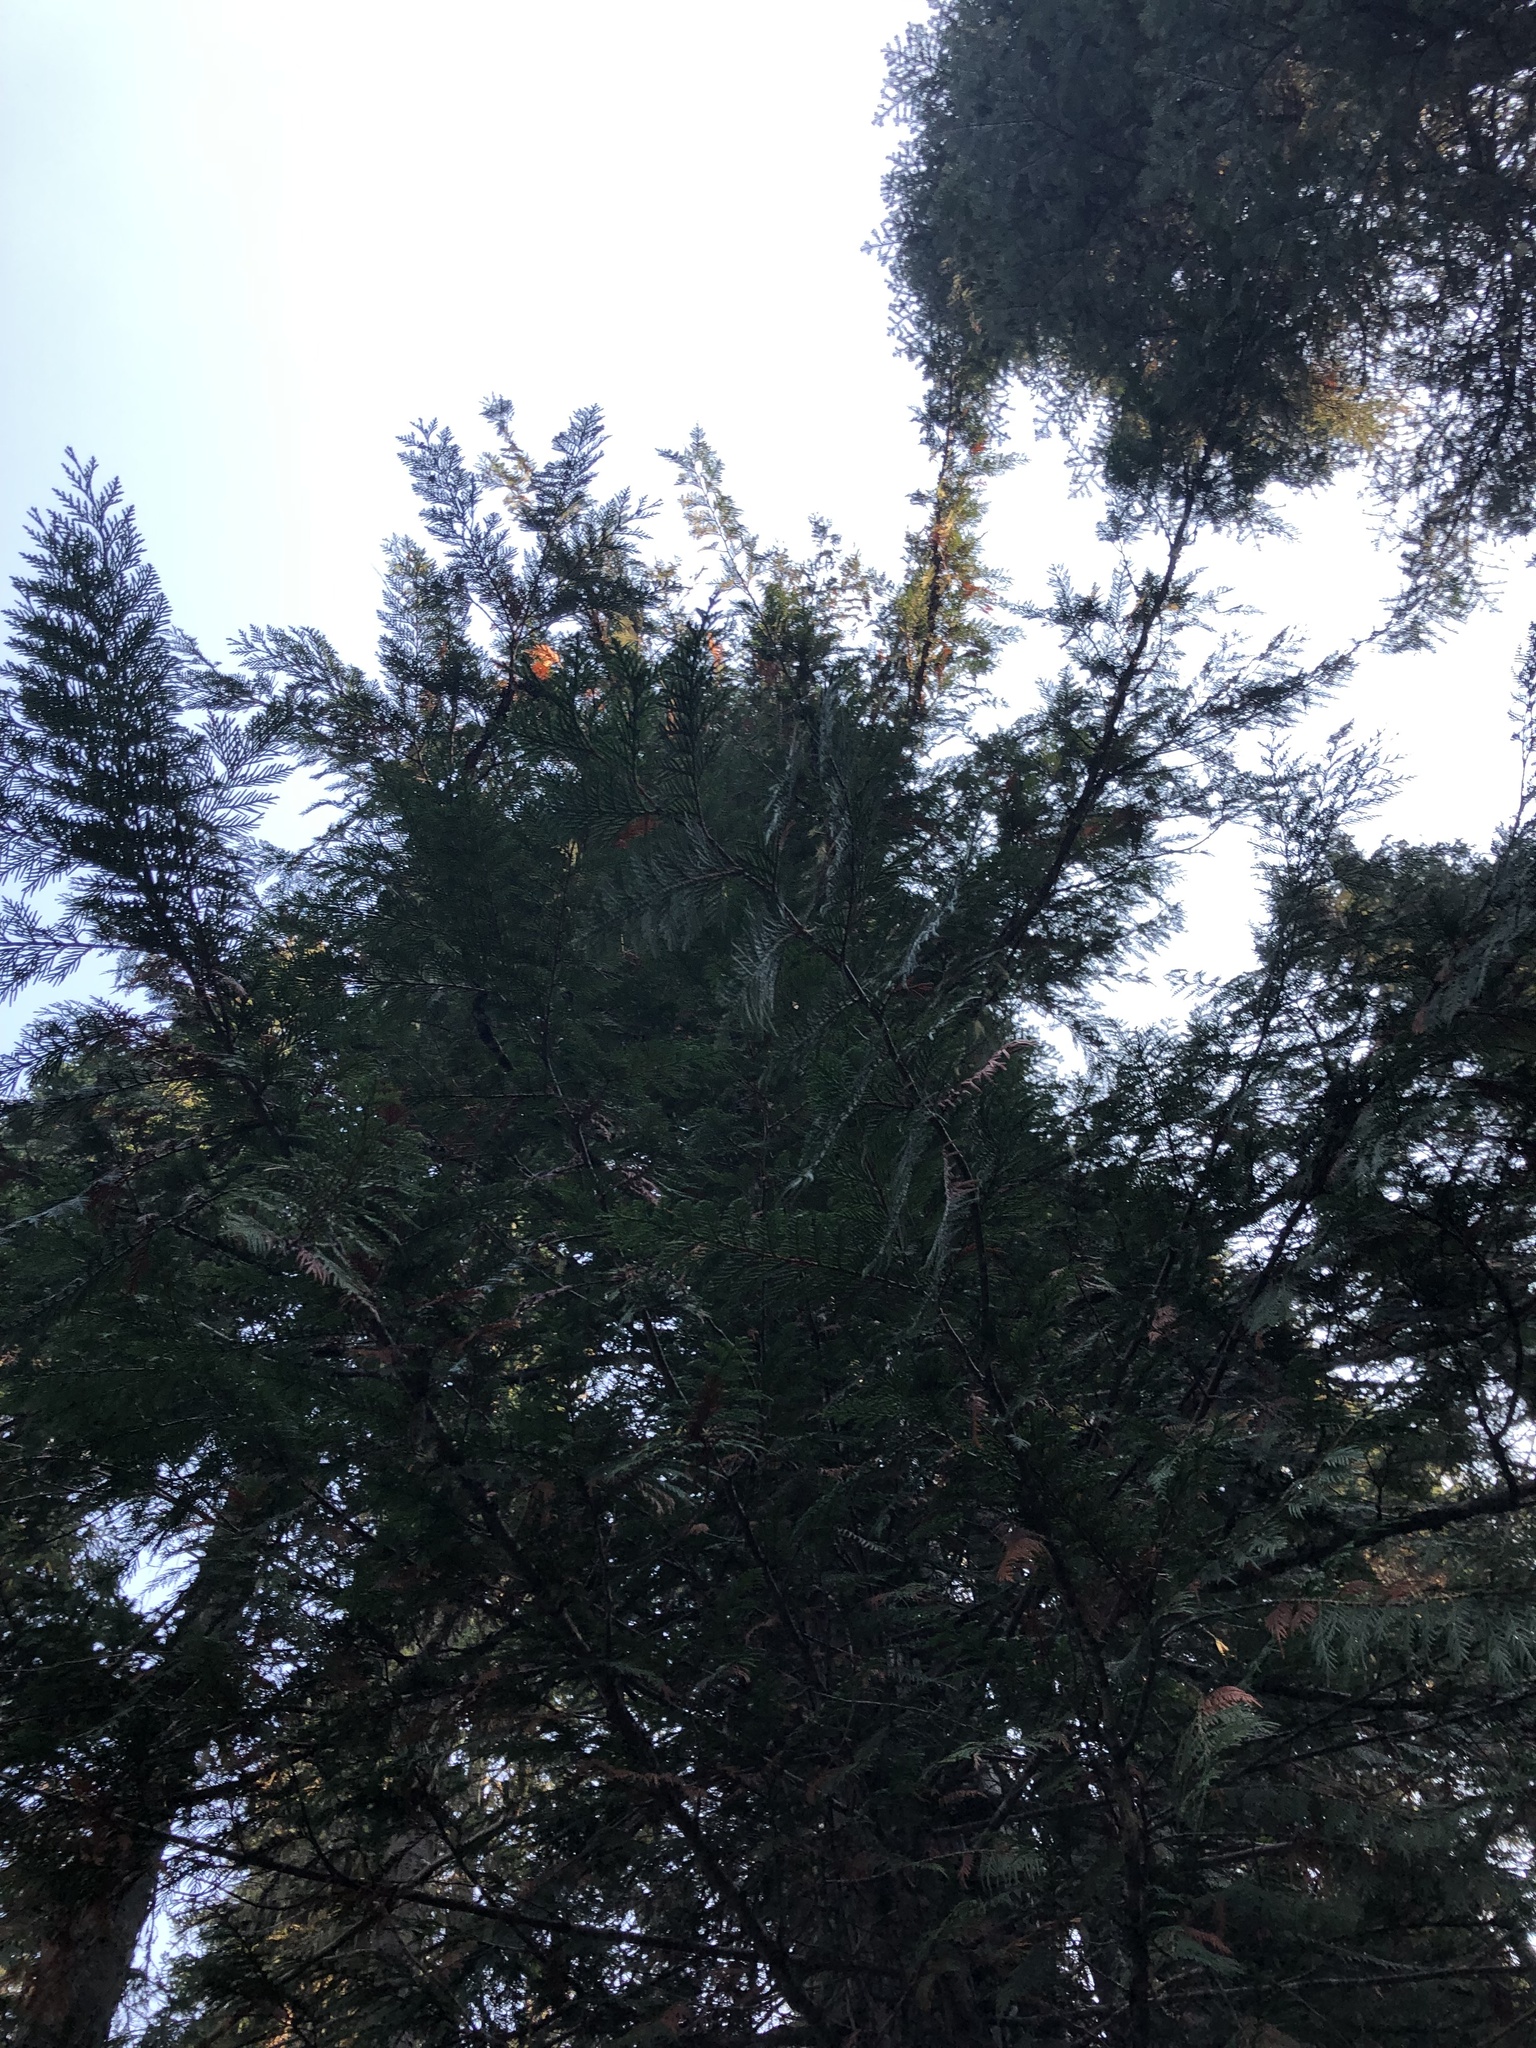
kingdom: Plantae
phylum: Tracheophyta
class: Pinopsida
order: Pinales
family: Cupressaceae
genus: Thuja
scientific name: Thuja plicata
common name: Western red-cedar
